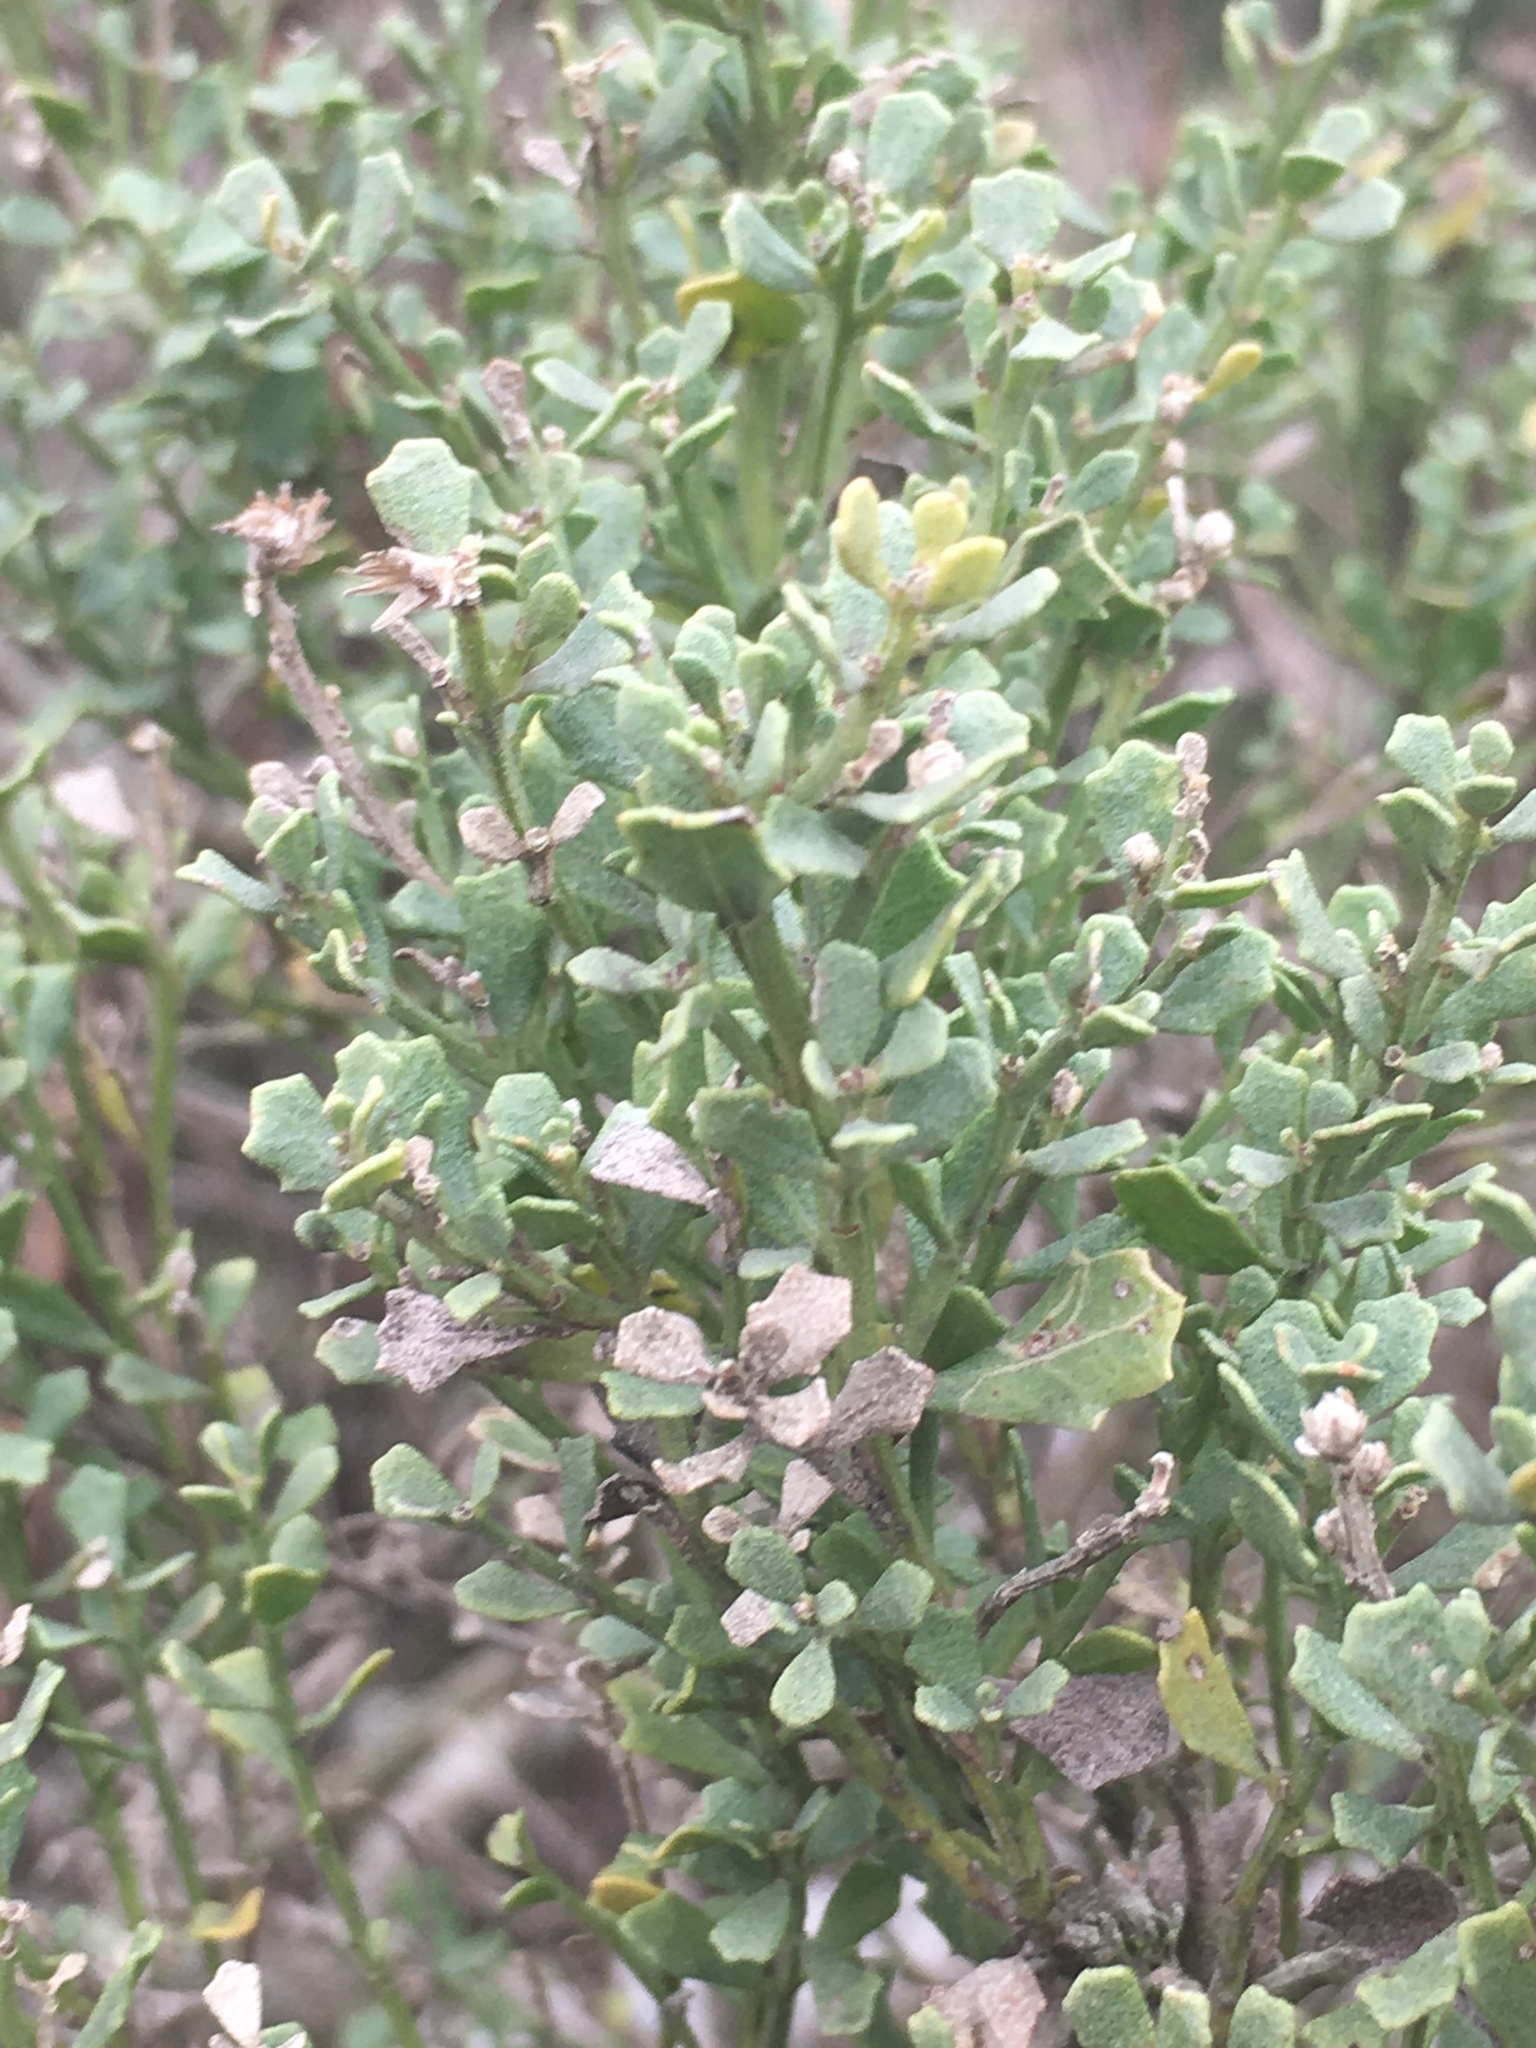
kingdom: Plantae
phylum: Tracheophyta
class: Magnoliopsida
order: Asterales
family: Asteraceae
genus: Baccharis
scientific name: Baccharis pilularis
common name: Coyotebrush
